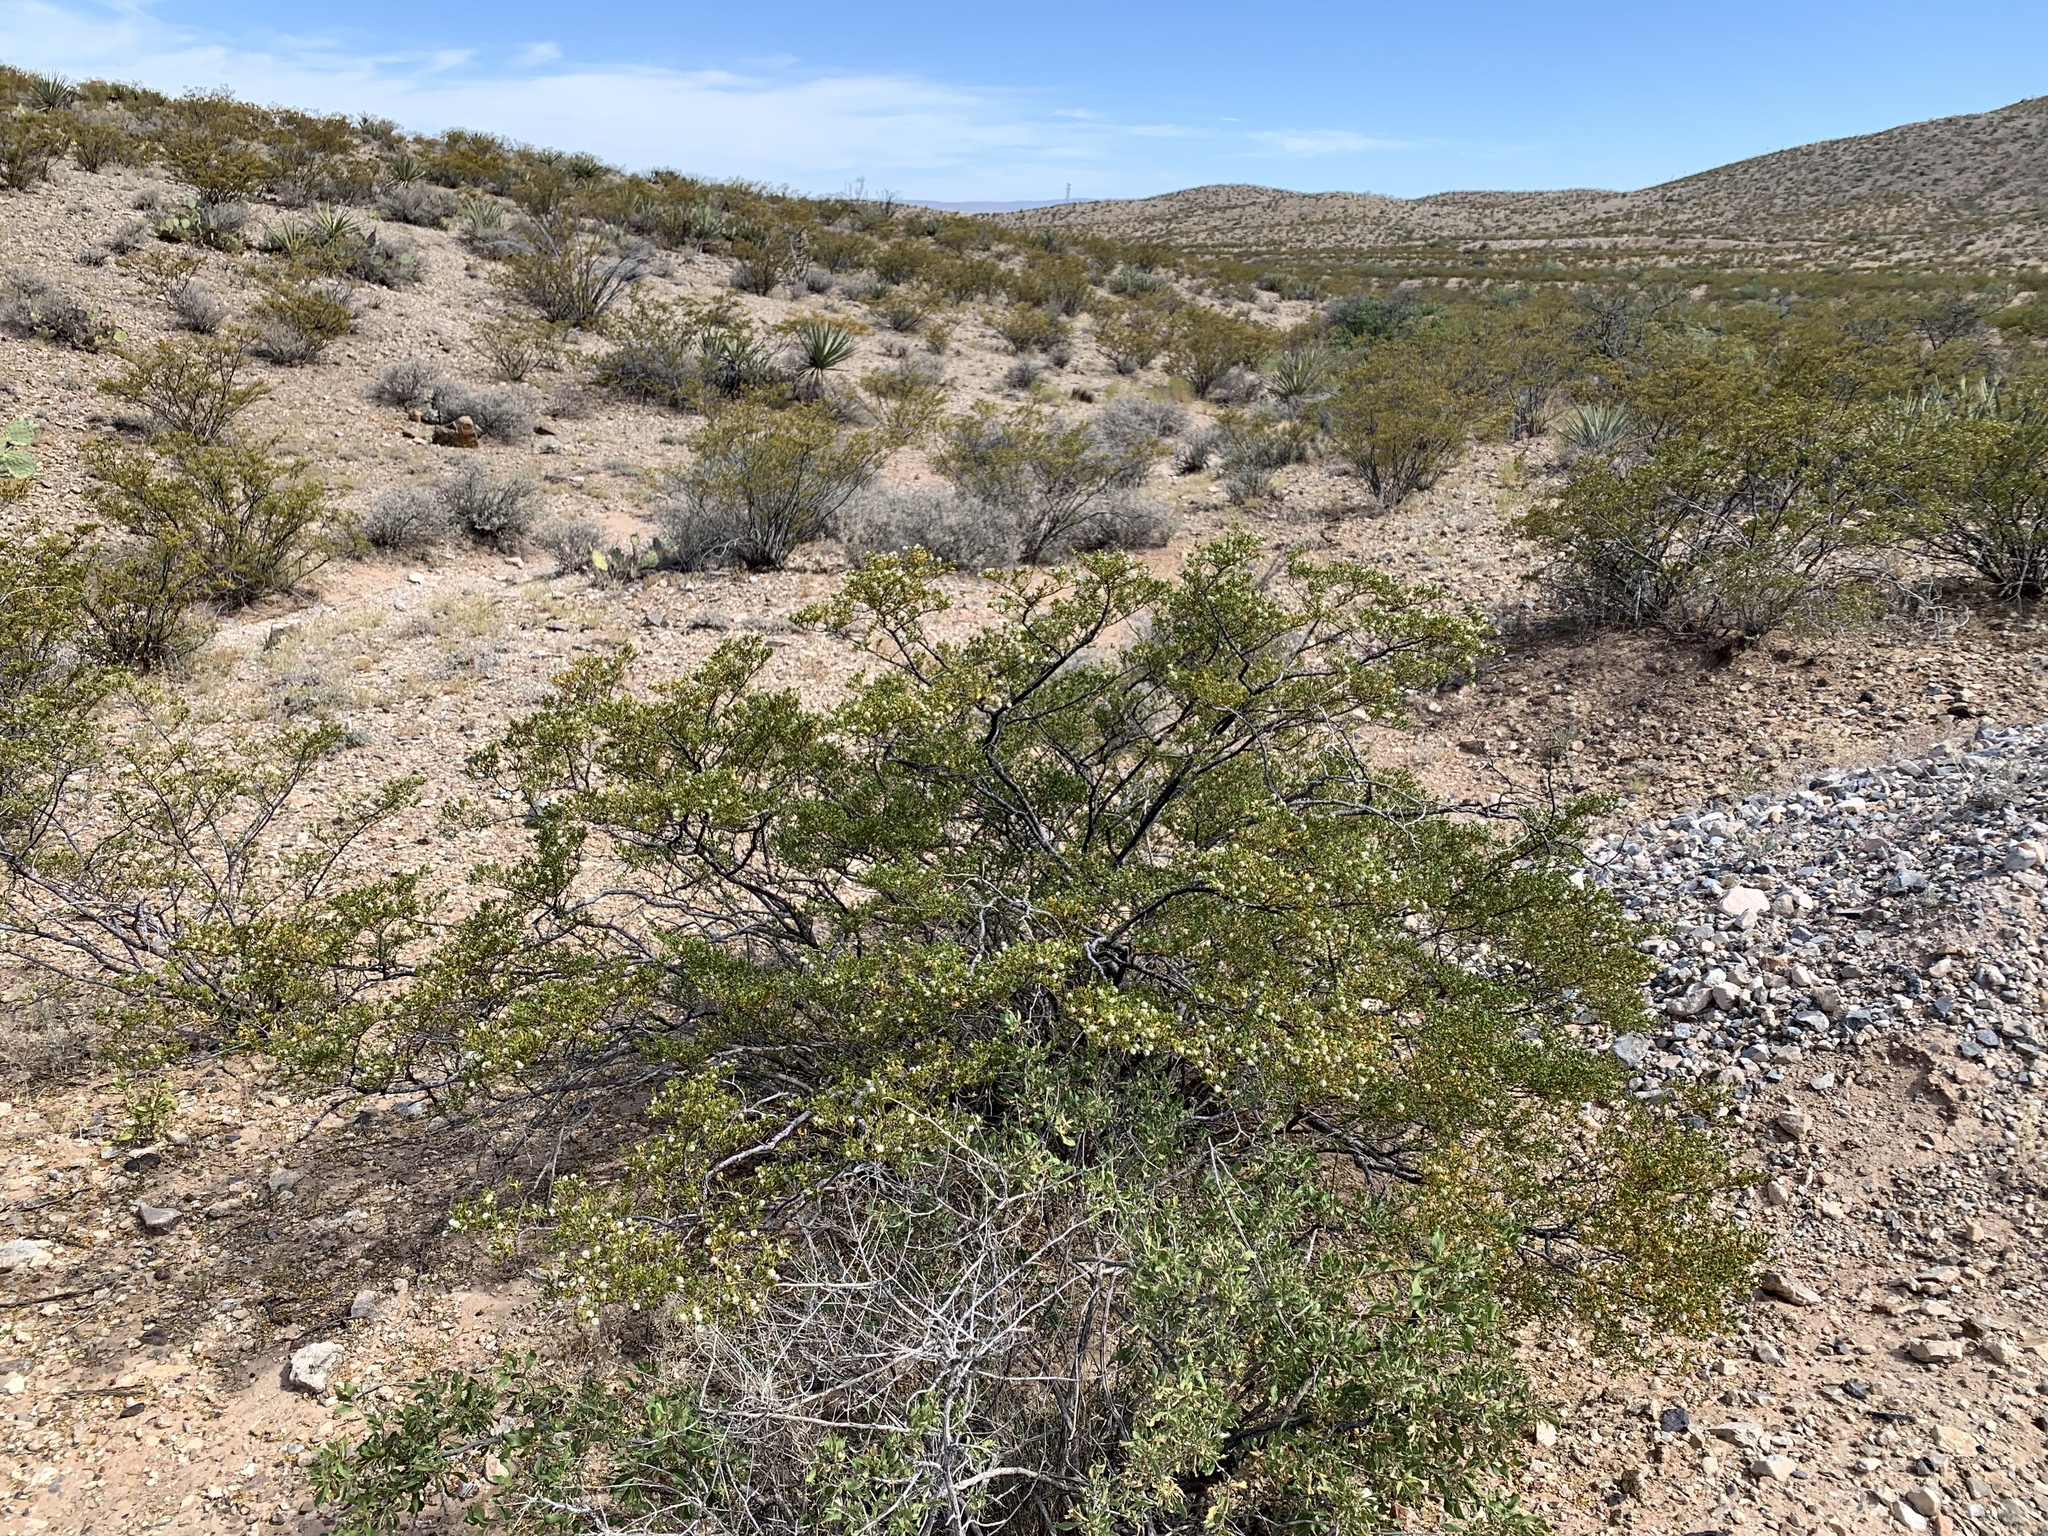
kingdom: Plantae
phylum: Tracheophyta
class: Magnoliopsida
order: Zygophyllales
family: Zygophyllaceae
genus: Larrea
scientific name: Larrea tridentata
